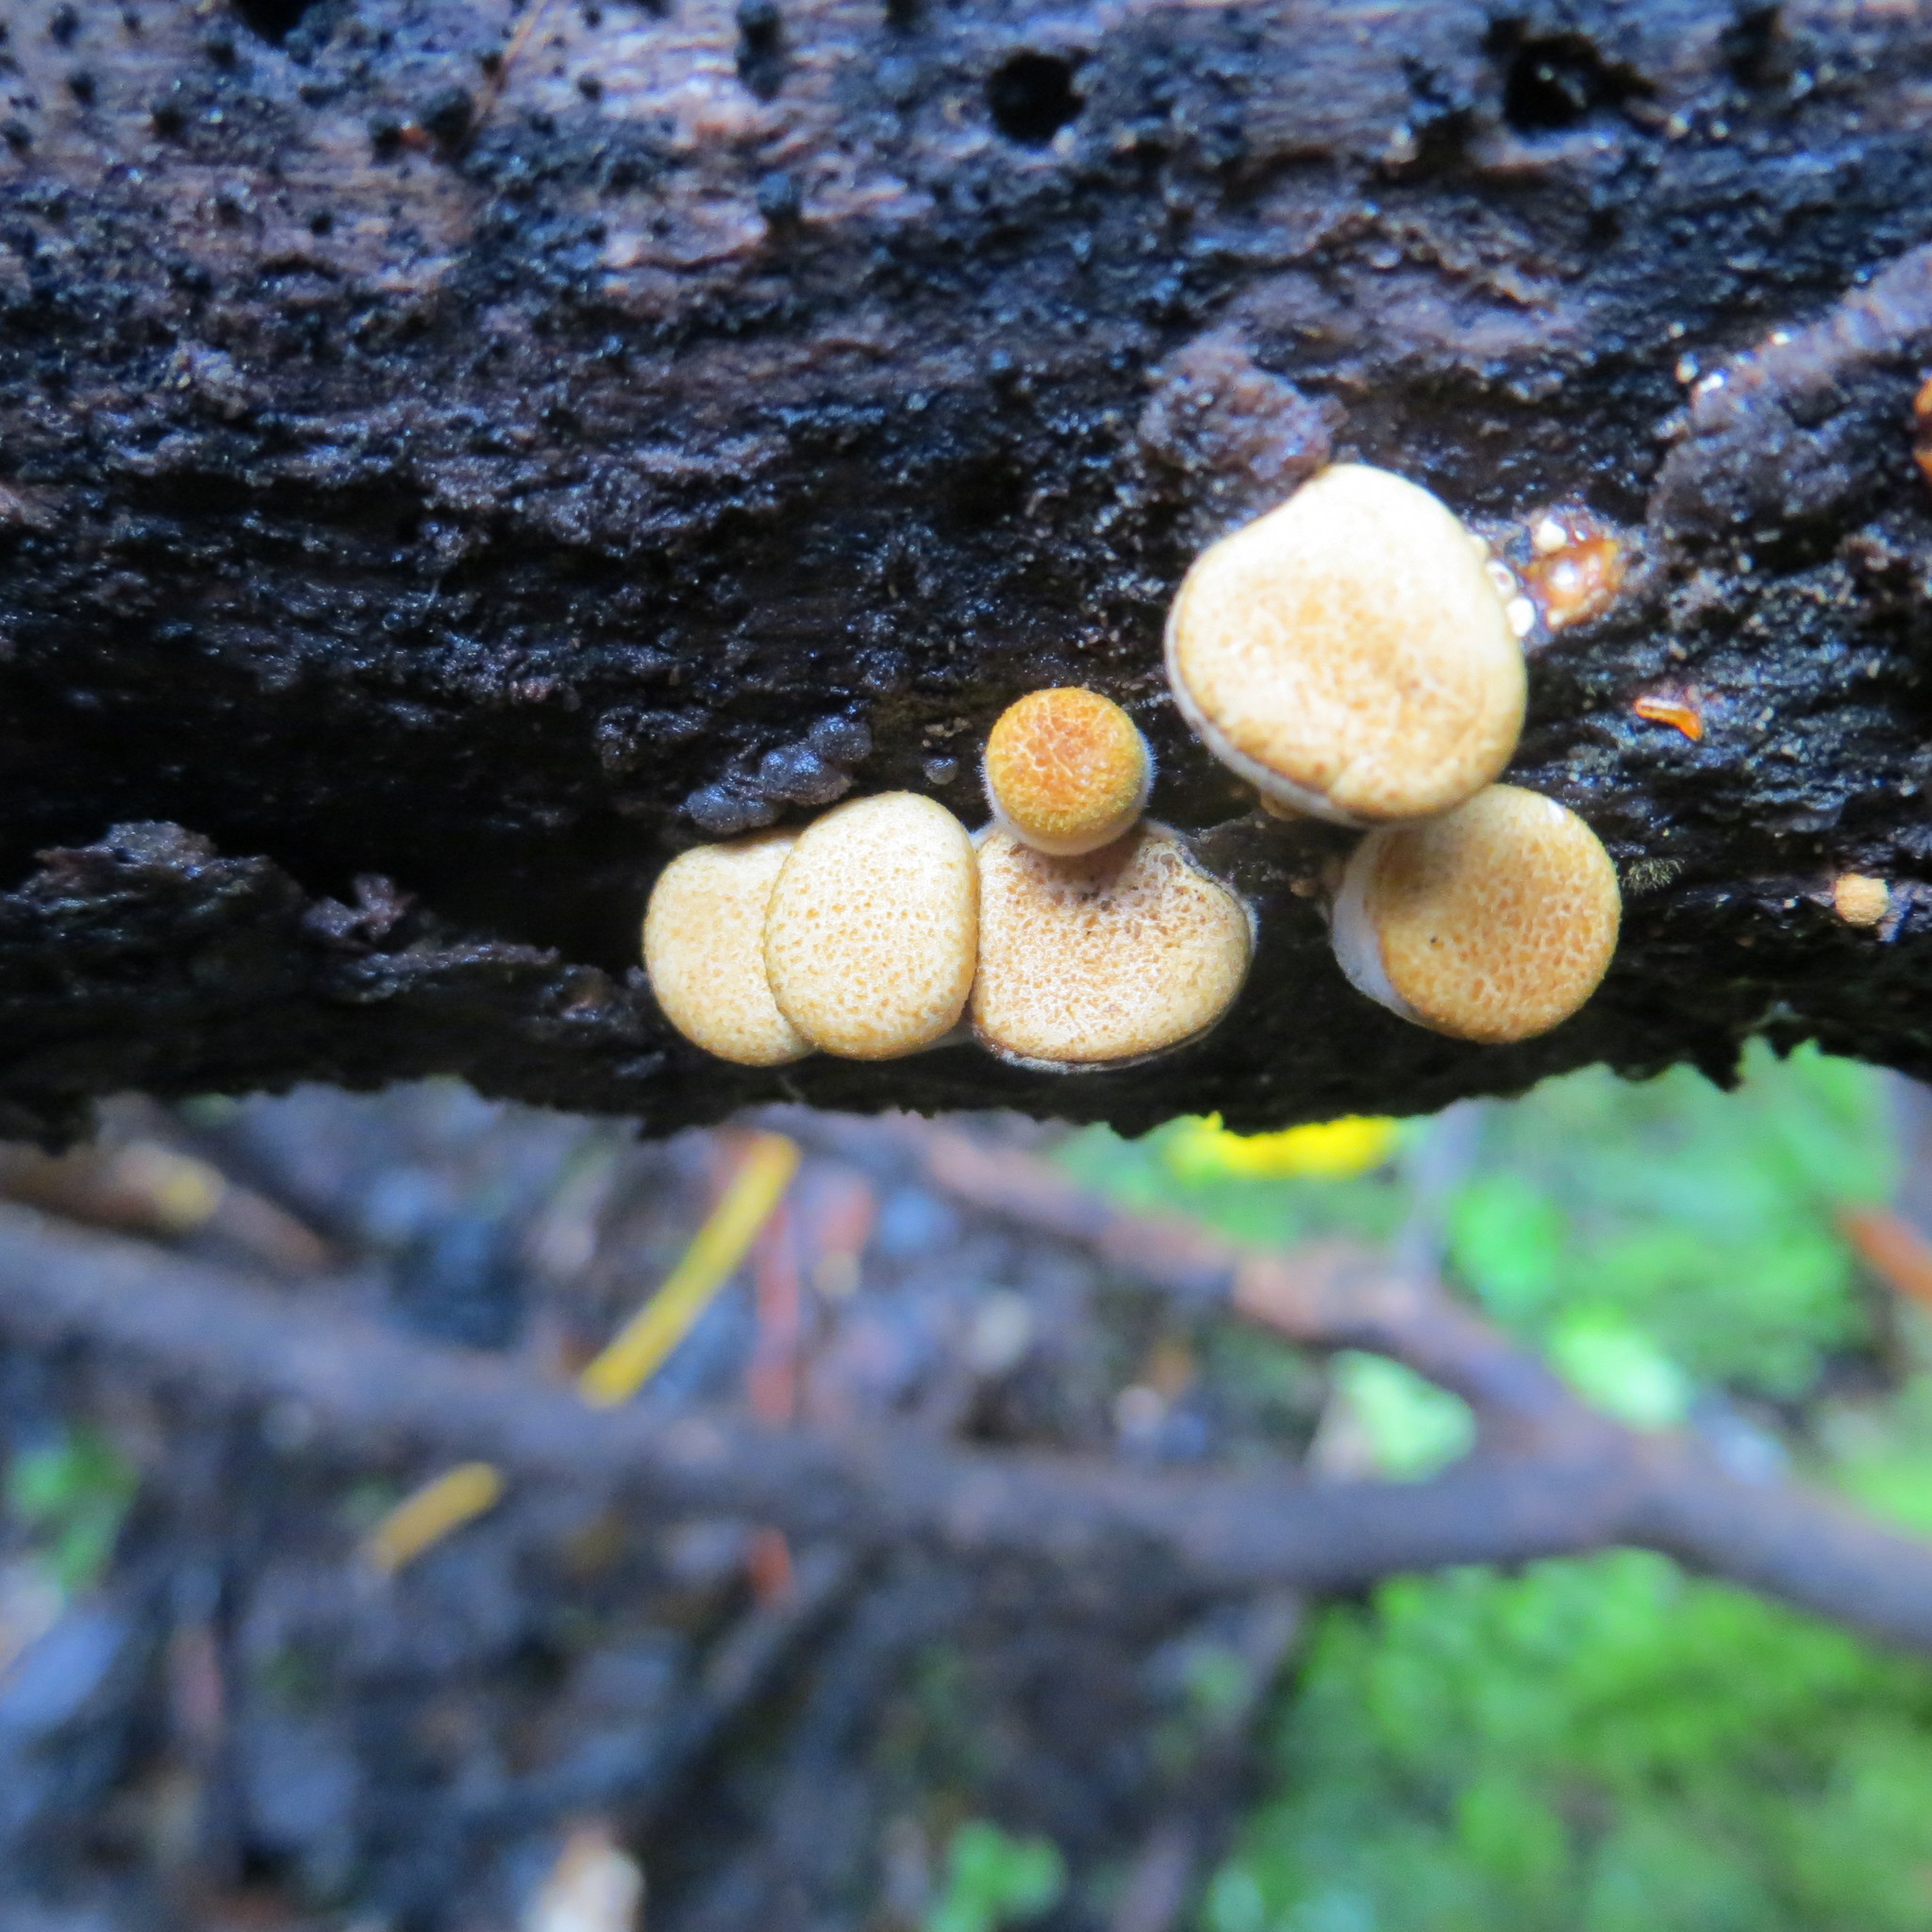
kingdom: Fungi
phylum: Basidiomycota
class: Agaricomycetes
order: Agaricales
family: Nidulariaceae
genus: Crucibulum
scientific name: Crucibulum laeve
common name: Common bird's nest
